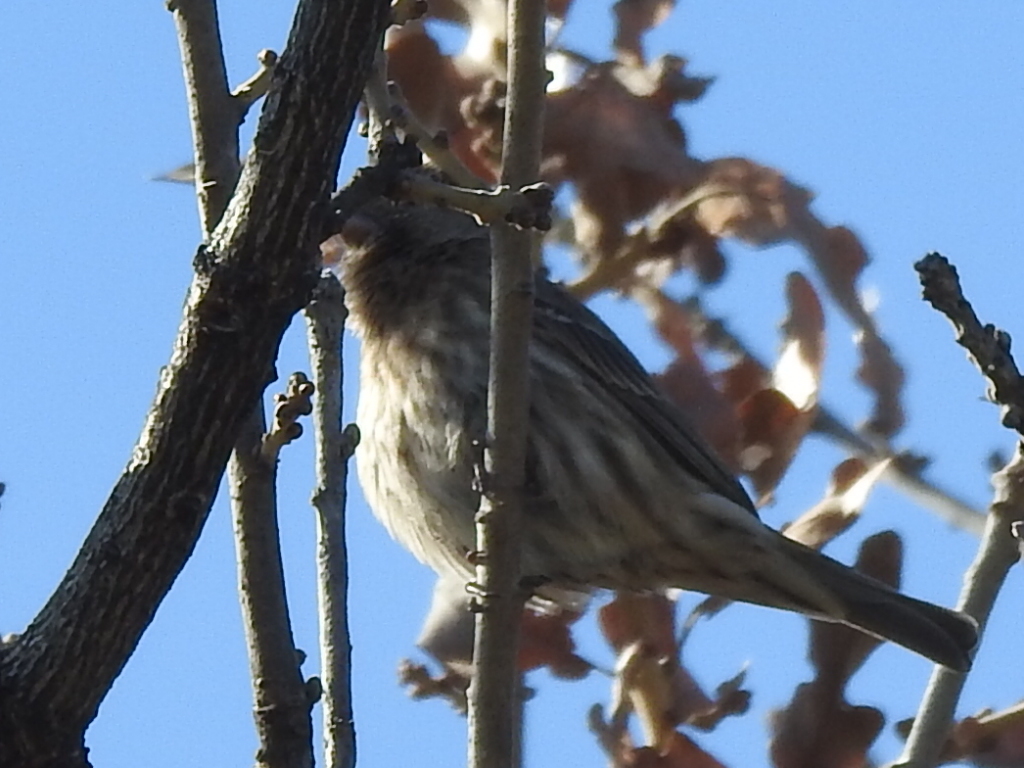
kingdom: Animalia
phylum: Chordata
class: Aves
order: Passeriformes
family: Fringillidae
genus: Haemorhous
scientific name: Haemorhous mexicanus
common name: House finch
